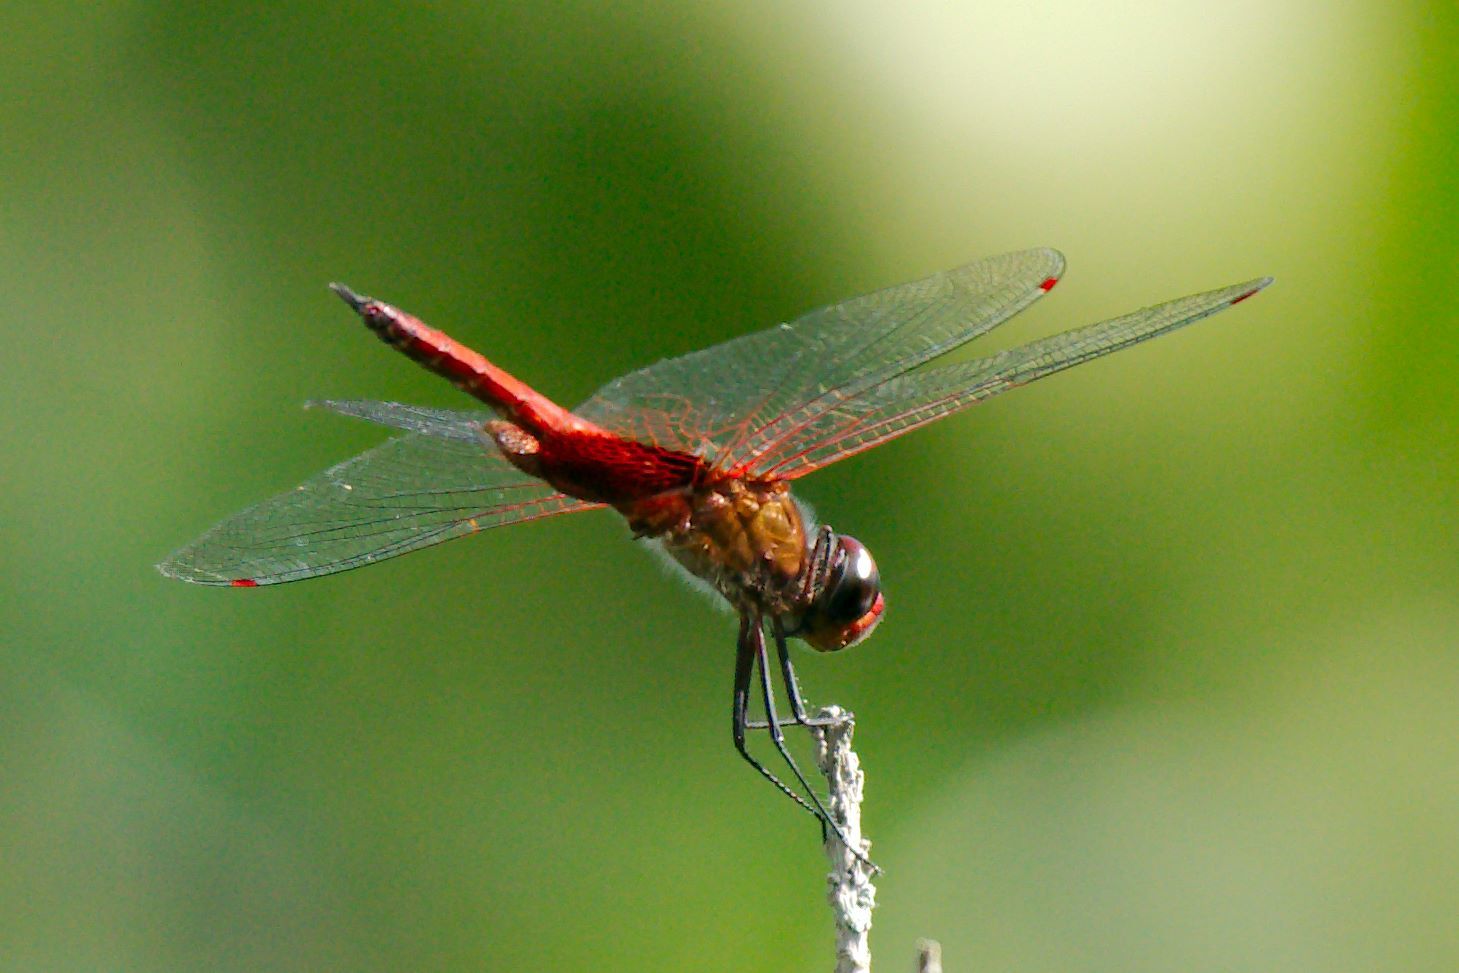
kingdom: Animalia
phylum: Arthropoda
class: Insecta
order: Odonata
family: Libellulidae
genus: Tramea
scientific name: Tramea abdominalis
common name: Vermilion saddlebags
